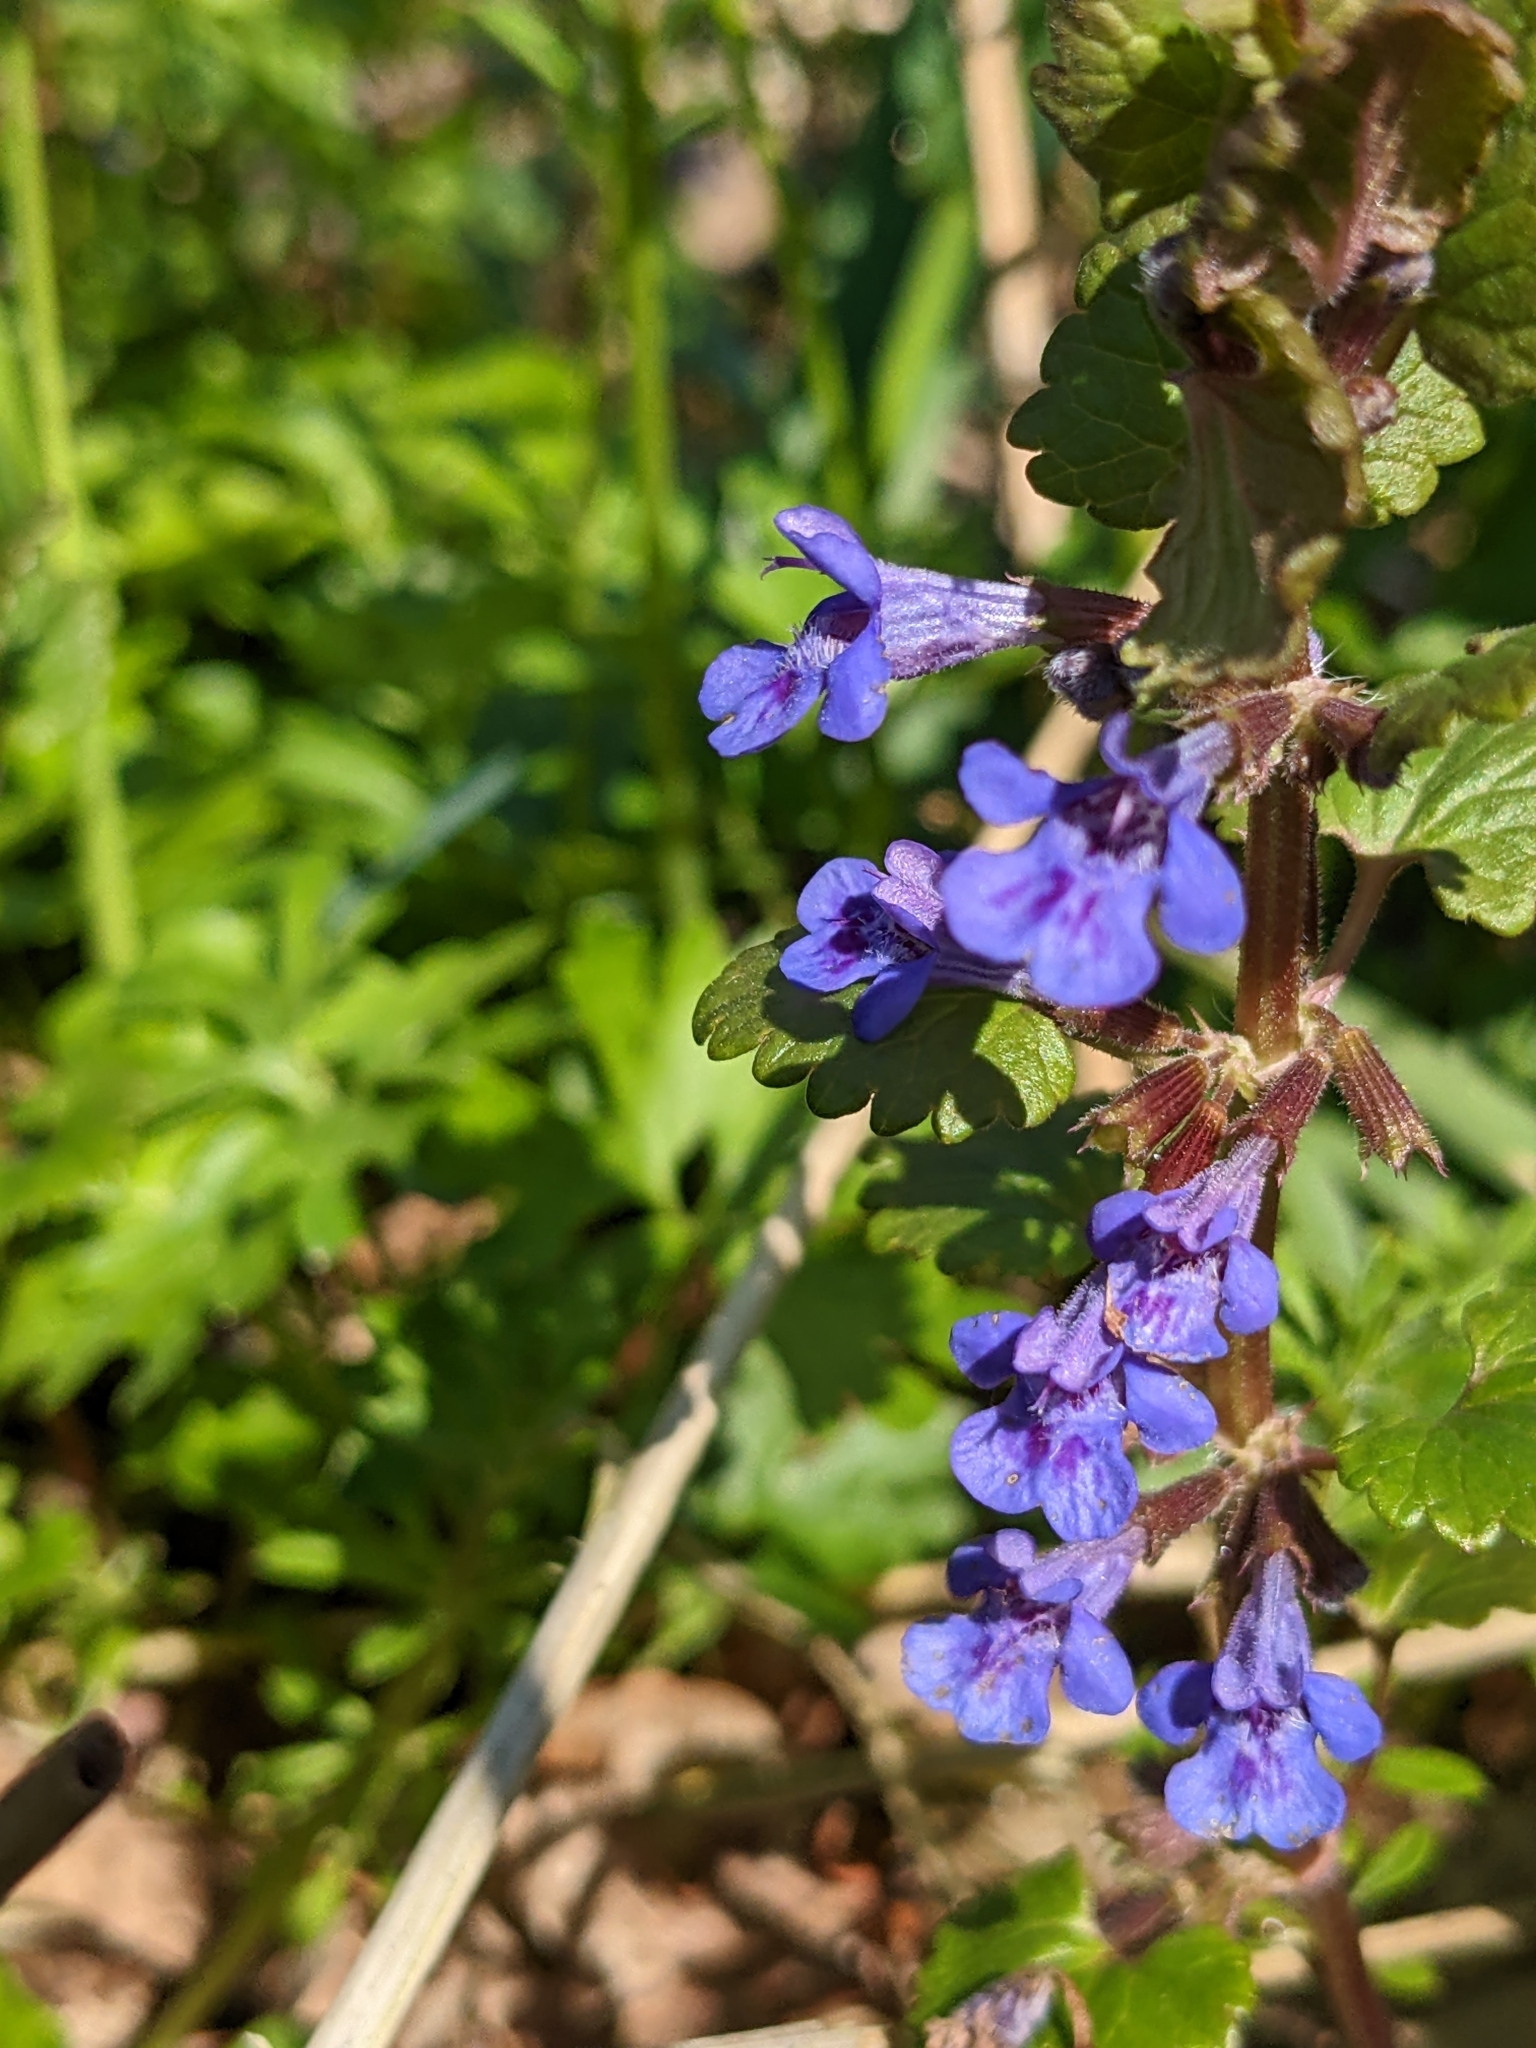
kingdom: Plantae
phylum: Tracheophyta
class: Magnoliopsida
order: Lamiales
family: Lamiaceae
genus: Glechoma
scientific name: Glechoma hederacea
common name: Ground ivy
